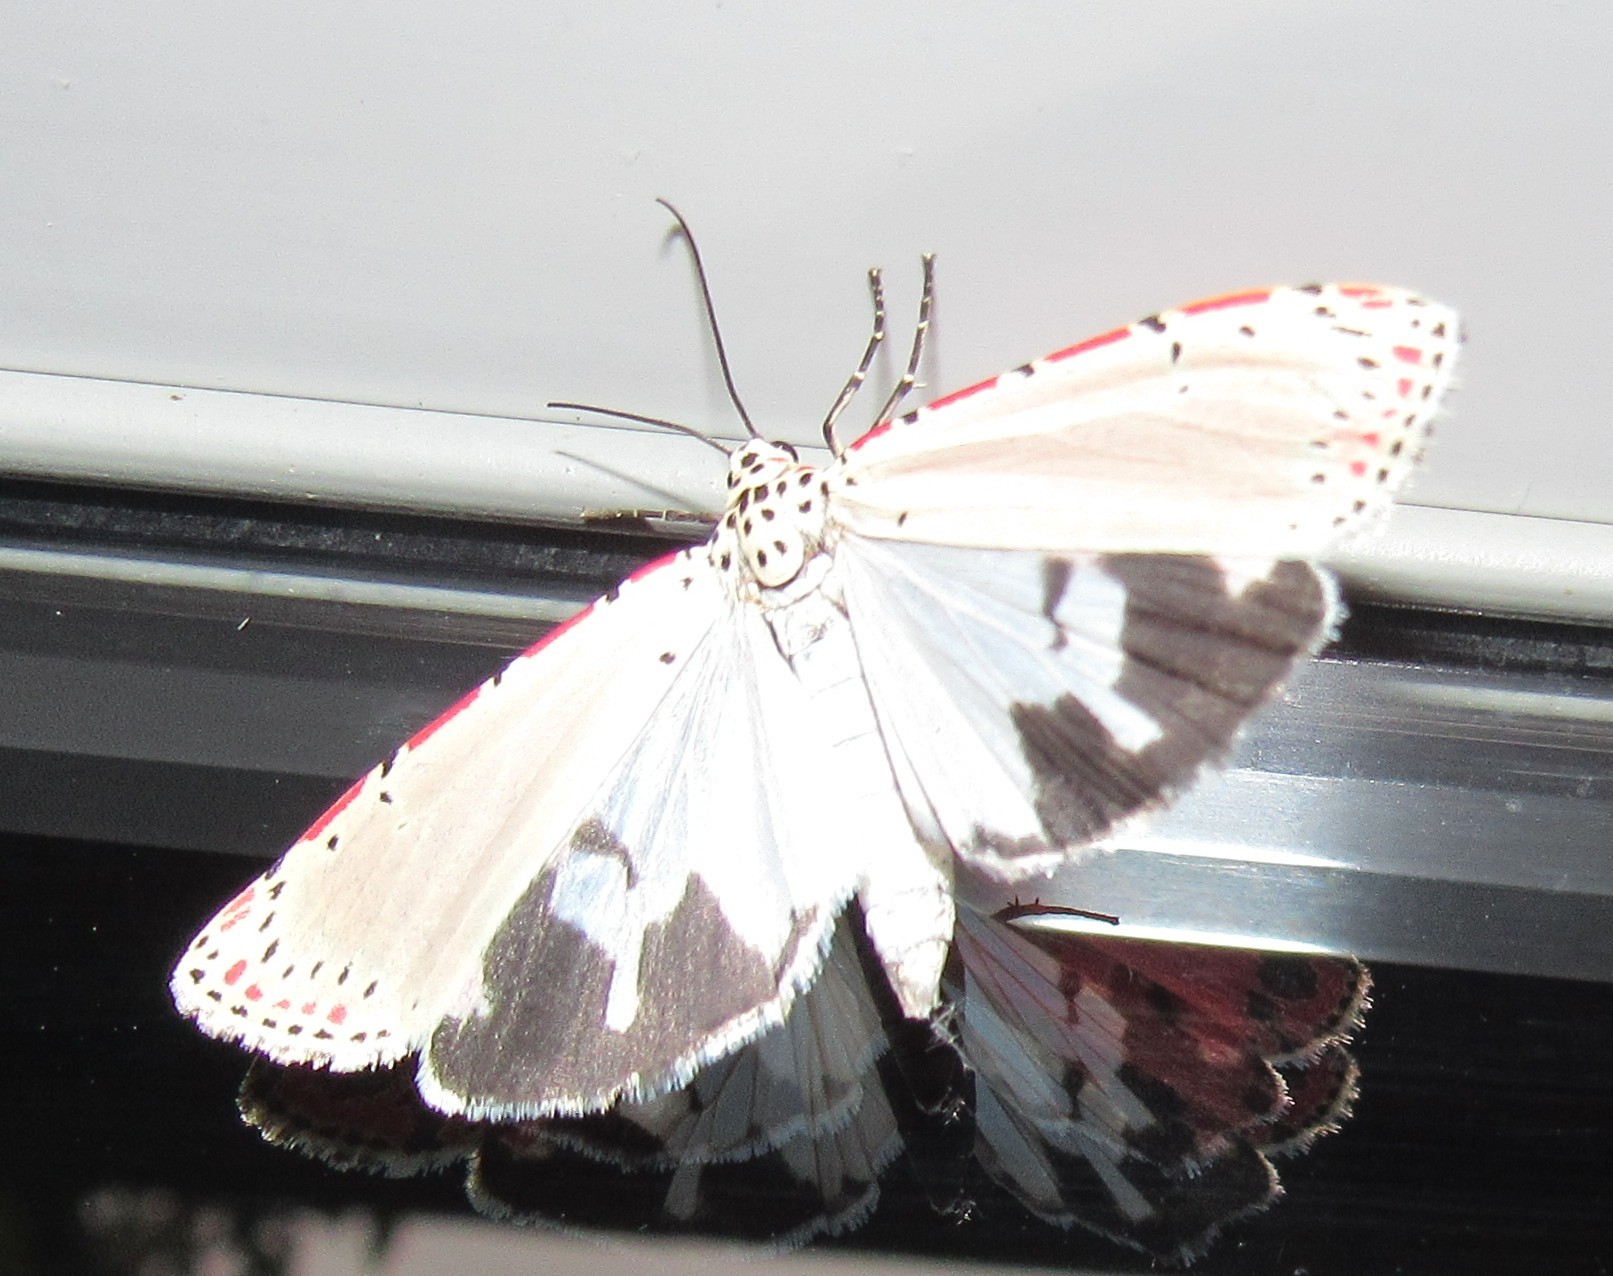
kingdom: Animalia
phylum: Arthropoda
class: Insecta
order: Lepidoptera
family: Erebidae
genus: Utetheisa
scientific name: Utetheisa ornatrix
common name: Beautiful utetheisa
